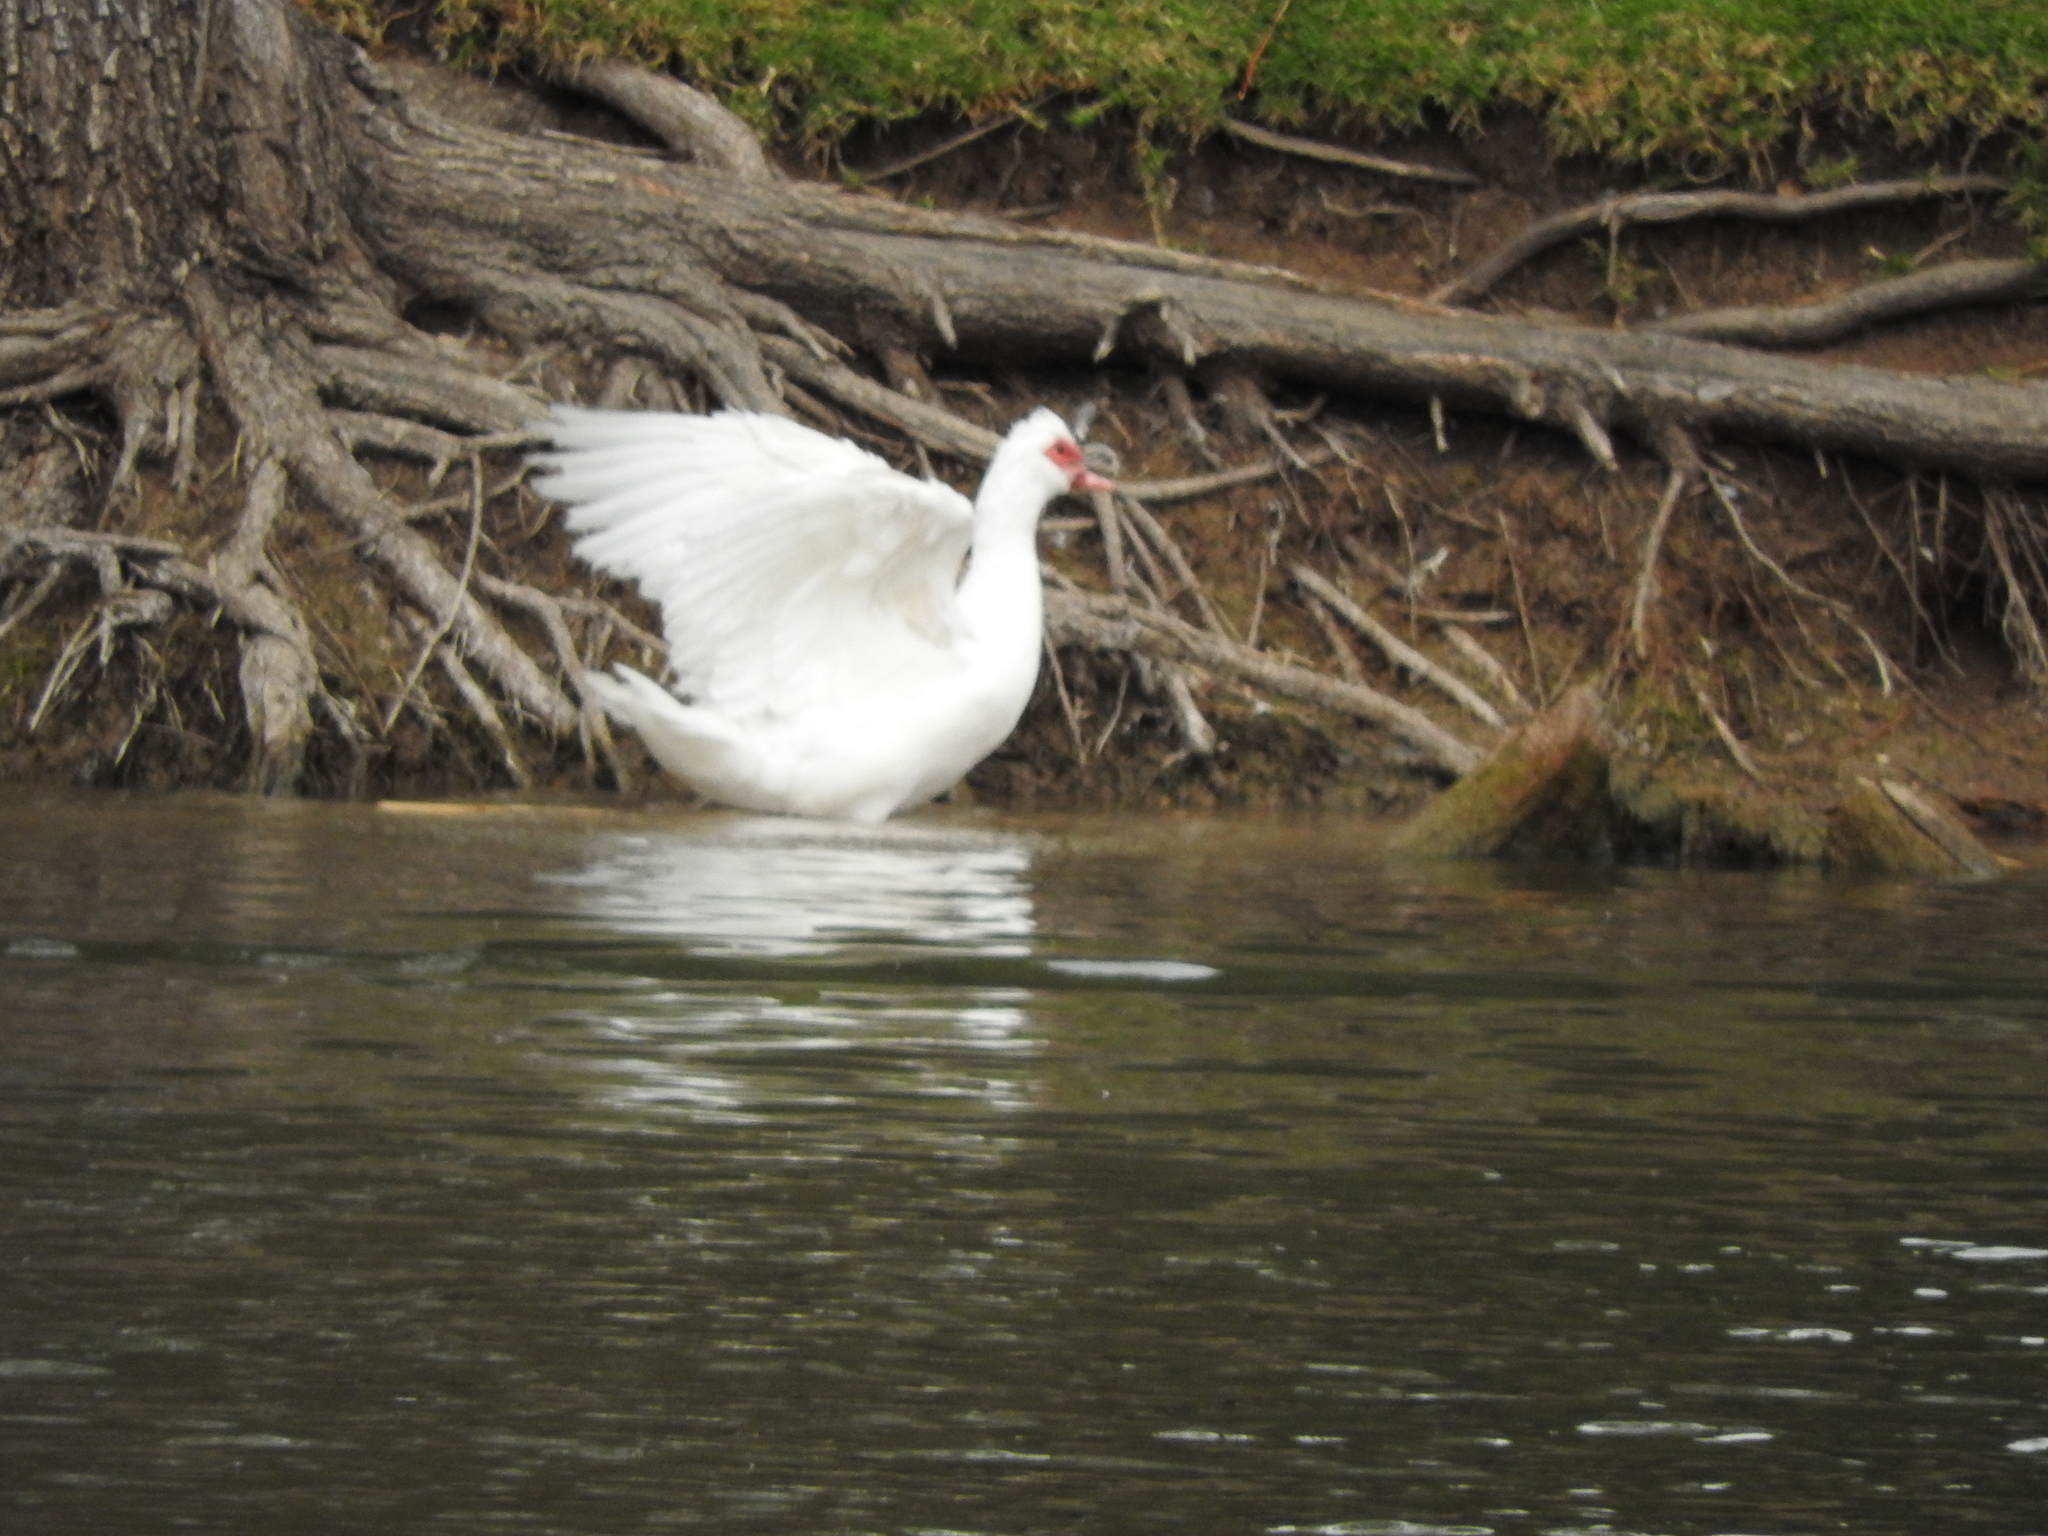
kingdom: Animalia
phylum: Chordata
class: Aves
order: Anseriformes
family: Anatidae
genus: Cairina
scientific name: Cairina moschata
